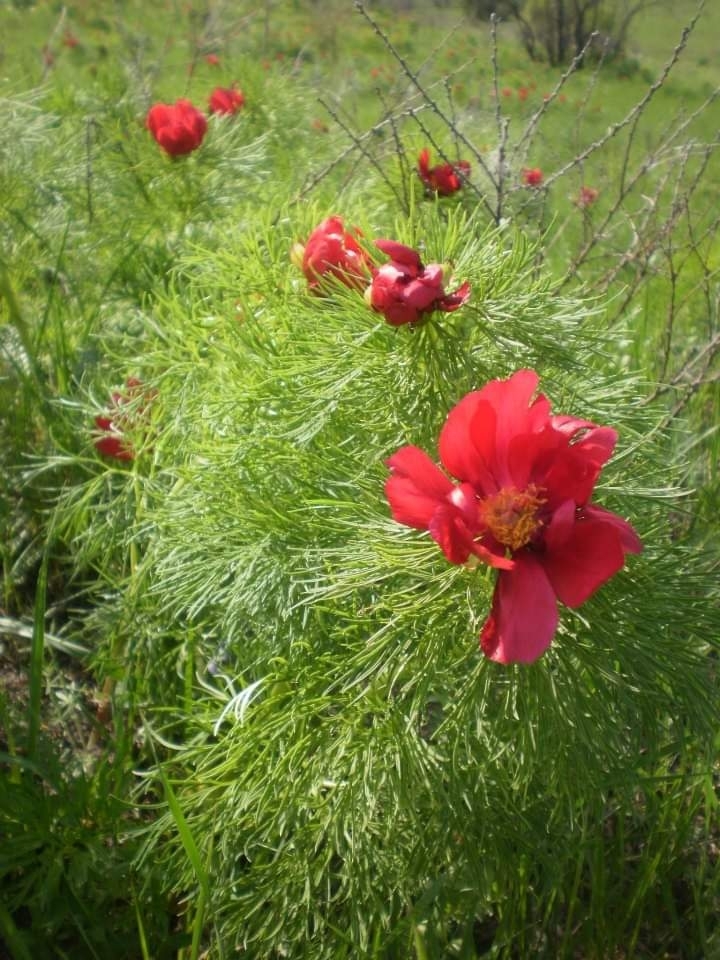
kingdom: Plantae
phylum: Tracheophyta
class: Magnoliopsida
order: Saxifragales
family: Paeoniaceae
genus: Paeonia
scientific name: Paeonia tenuifolia
